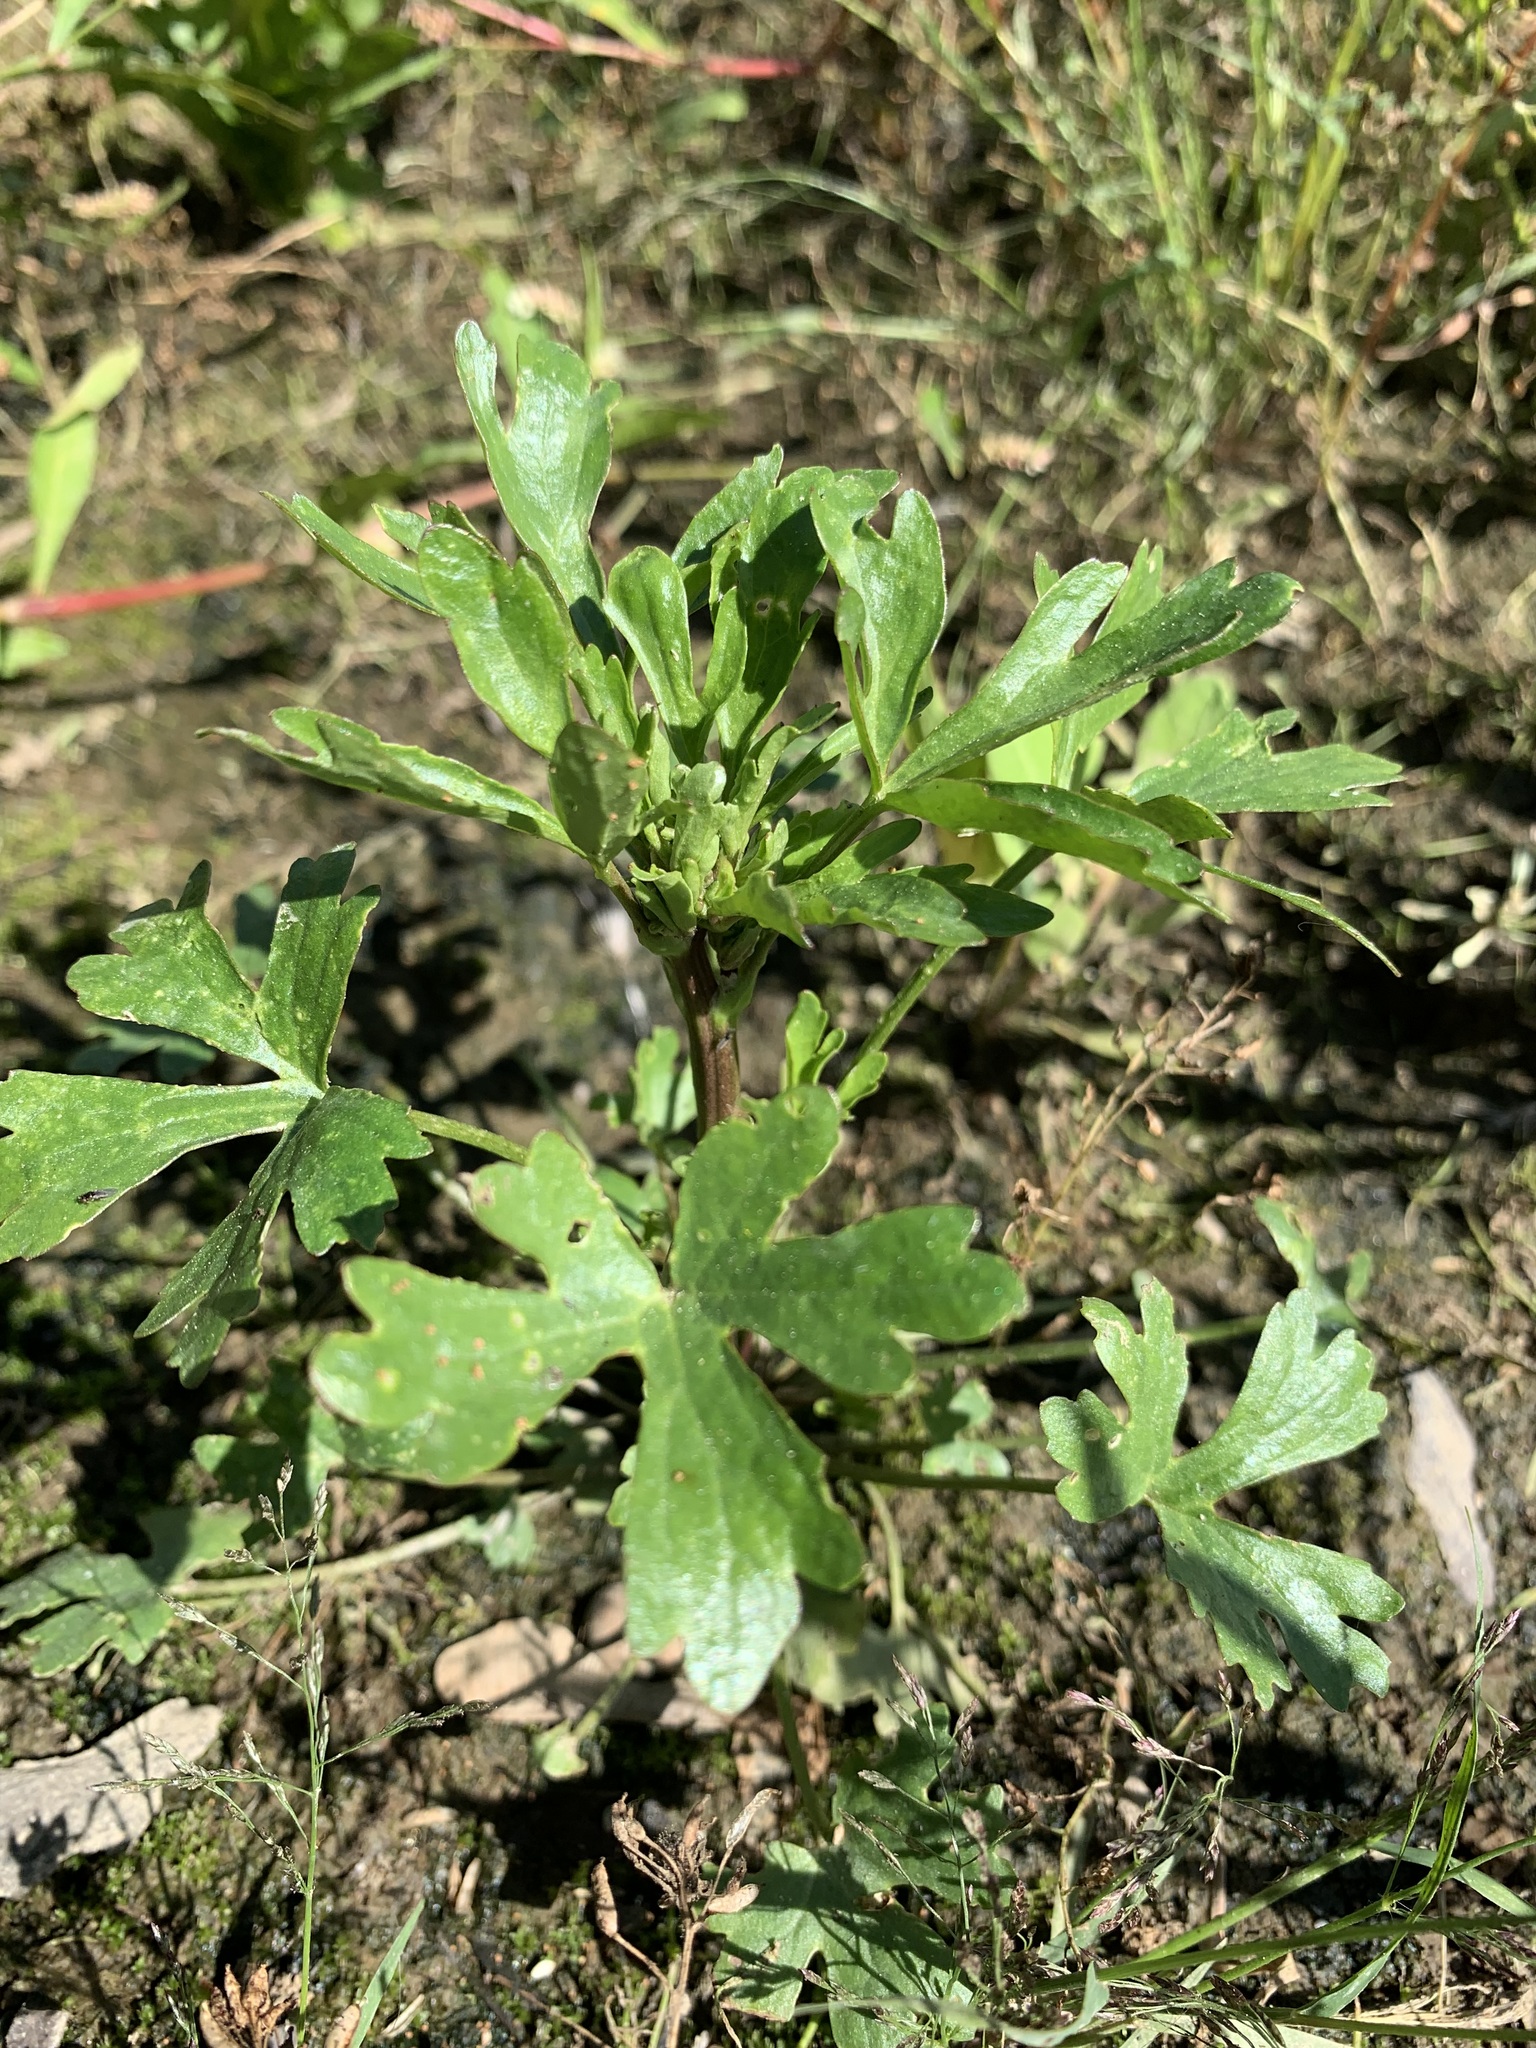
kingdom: Plantae
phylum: Tracheophyta
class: Magnoliopsida
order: Ranunculales
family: Ranunculaceae
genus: Ranunculus
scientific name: Ranunculus sceleratus
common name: Celery-leaved buttercup
